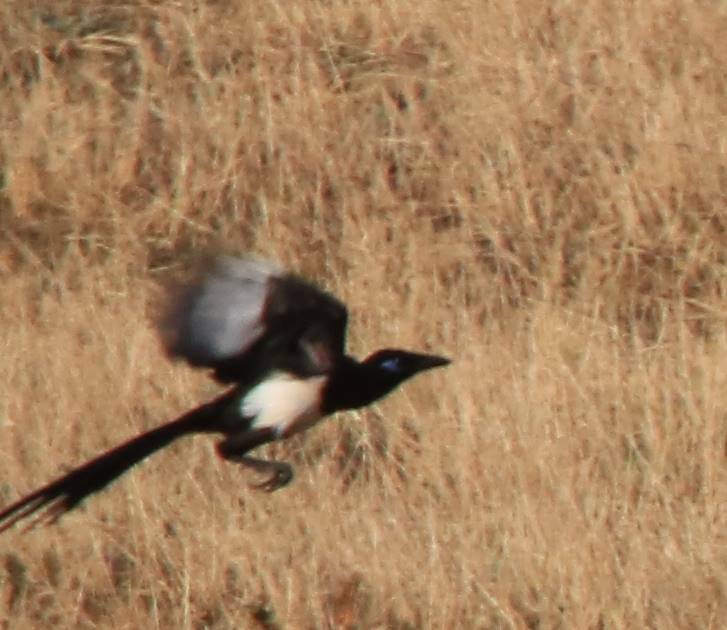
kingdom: Animalia
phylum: Chordata
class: Aves
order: Passeriformes
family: Corvidae
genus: Pica
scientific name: Pica mauritanica
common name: Maghreb magpie
